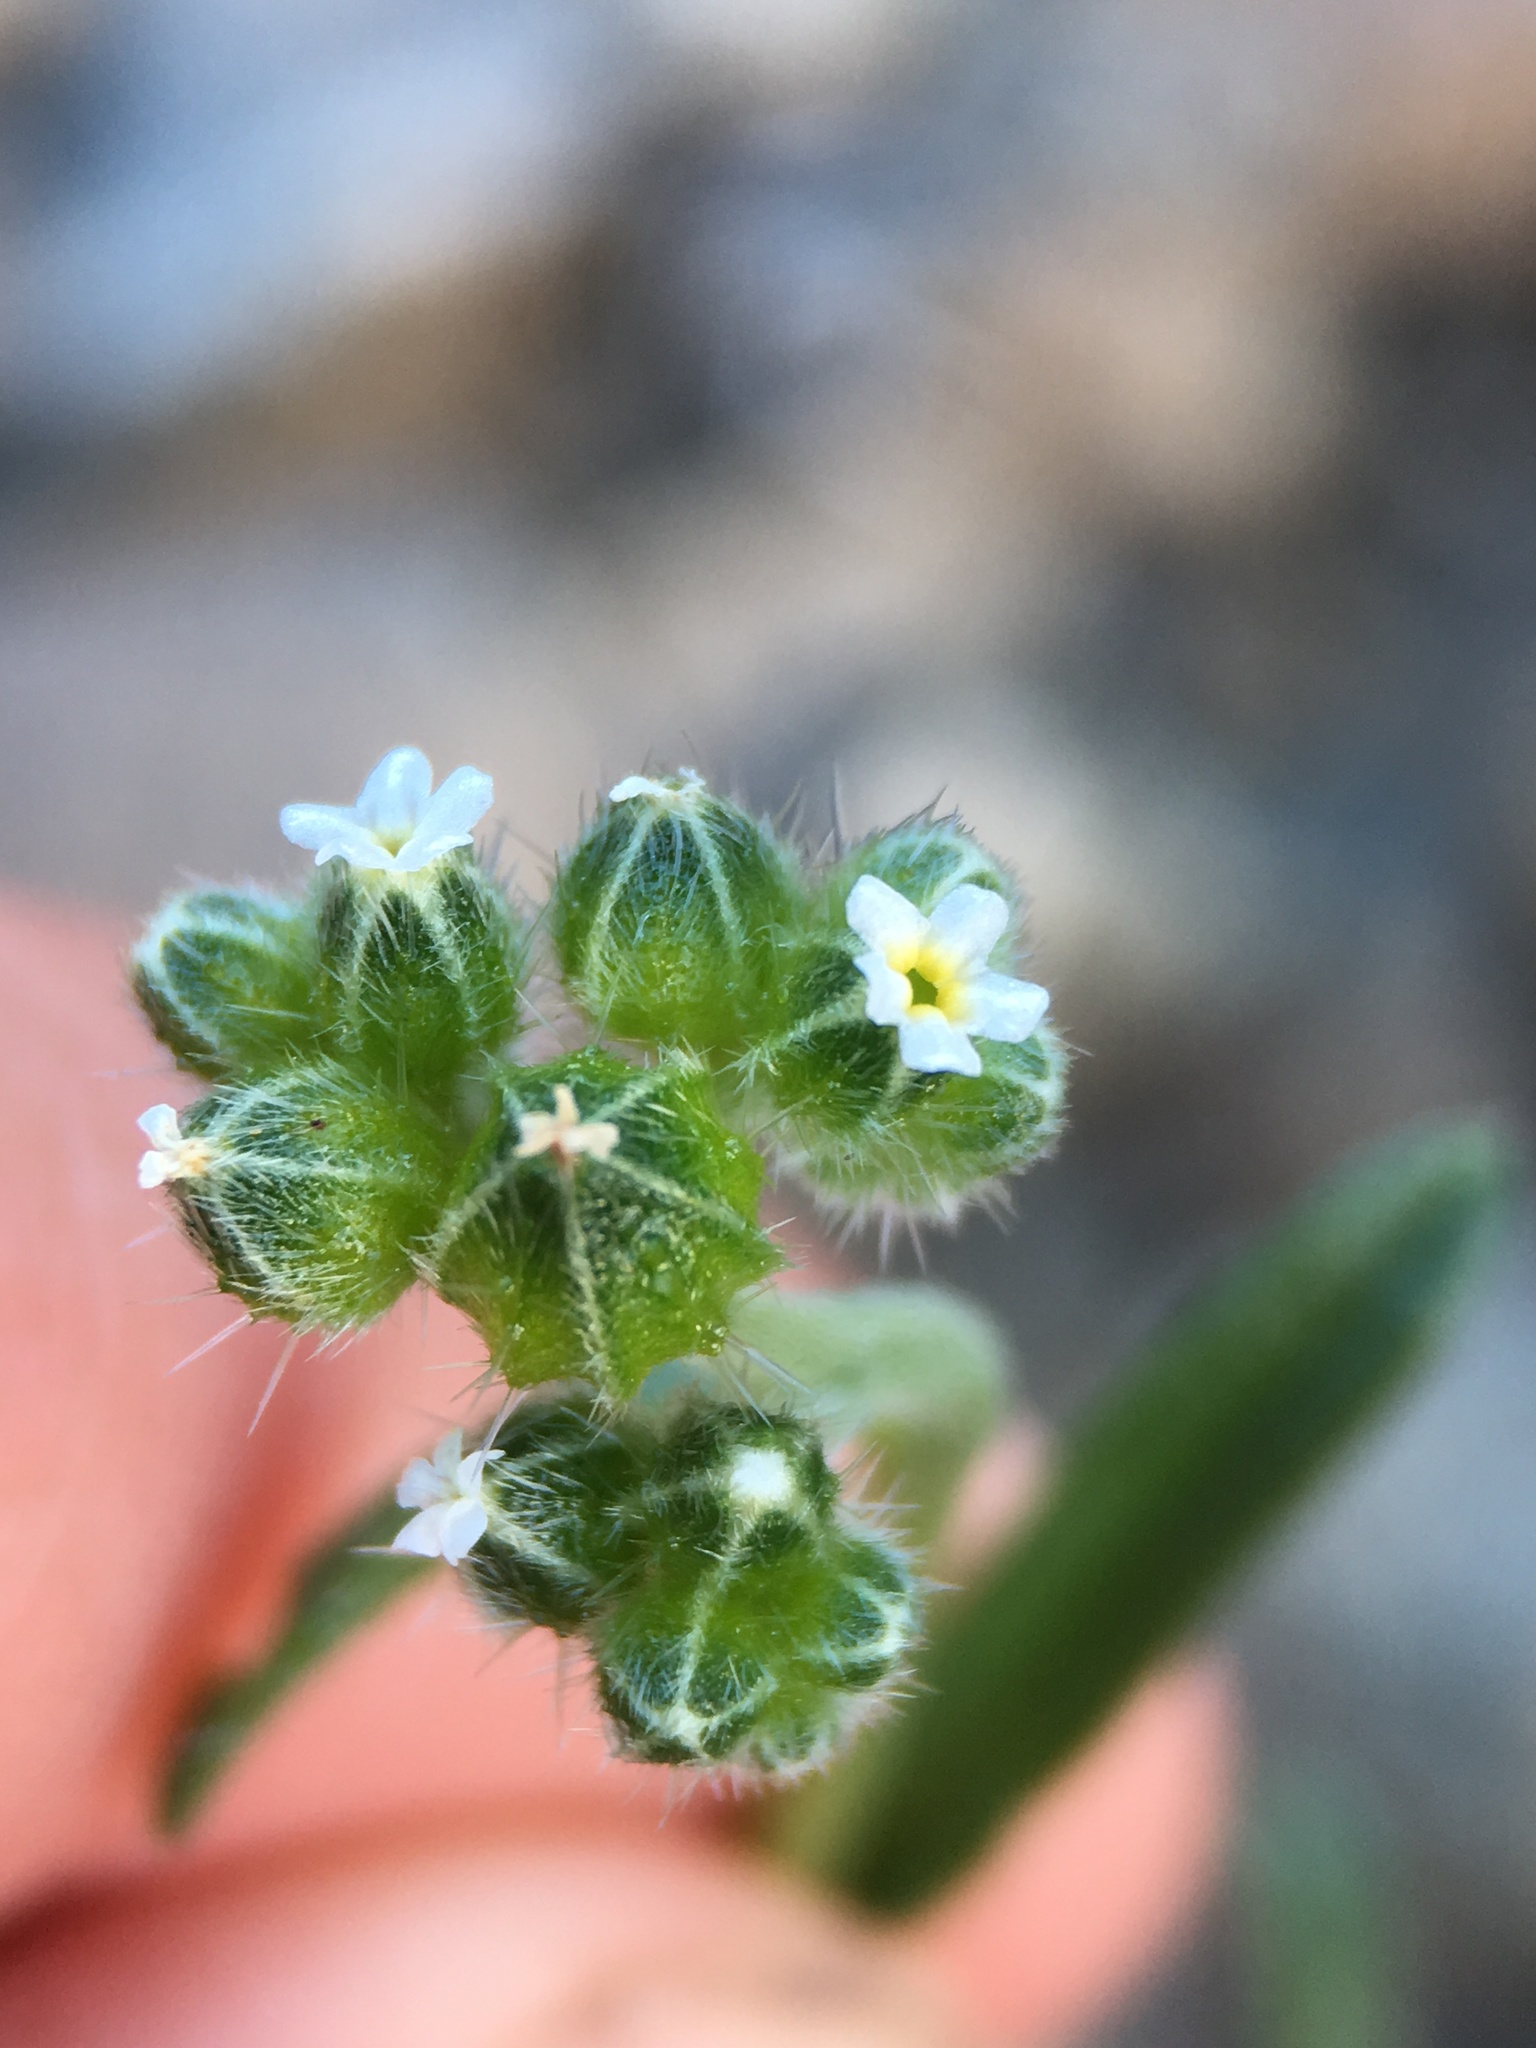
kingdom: Plantae
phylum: Tracheophyta
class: Magnoliopsida
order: Boraginales
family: Boraginaceae
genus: Cryptantha
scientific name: Cryptantha pterocarya
